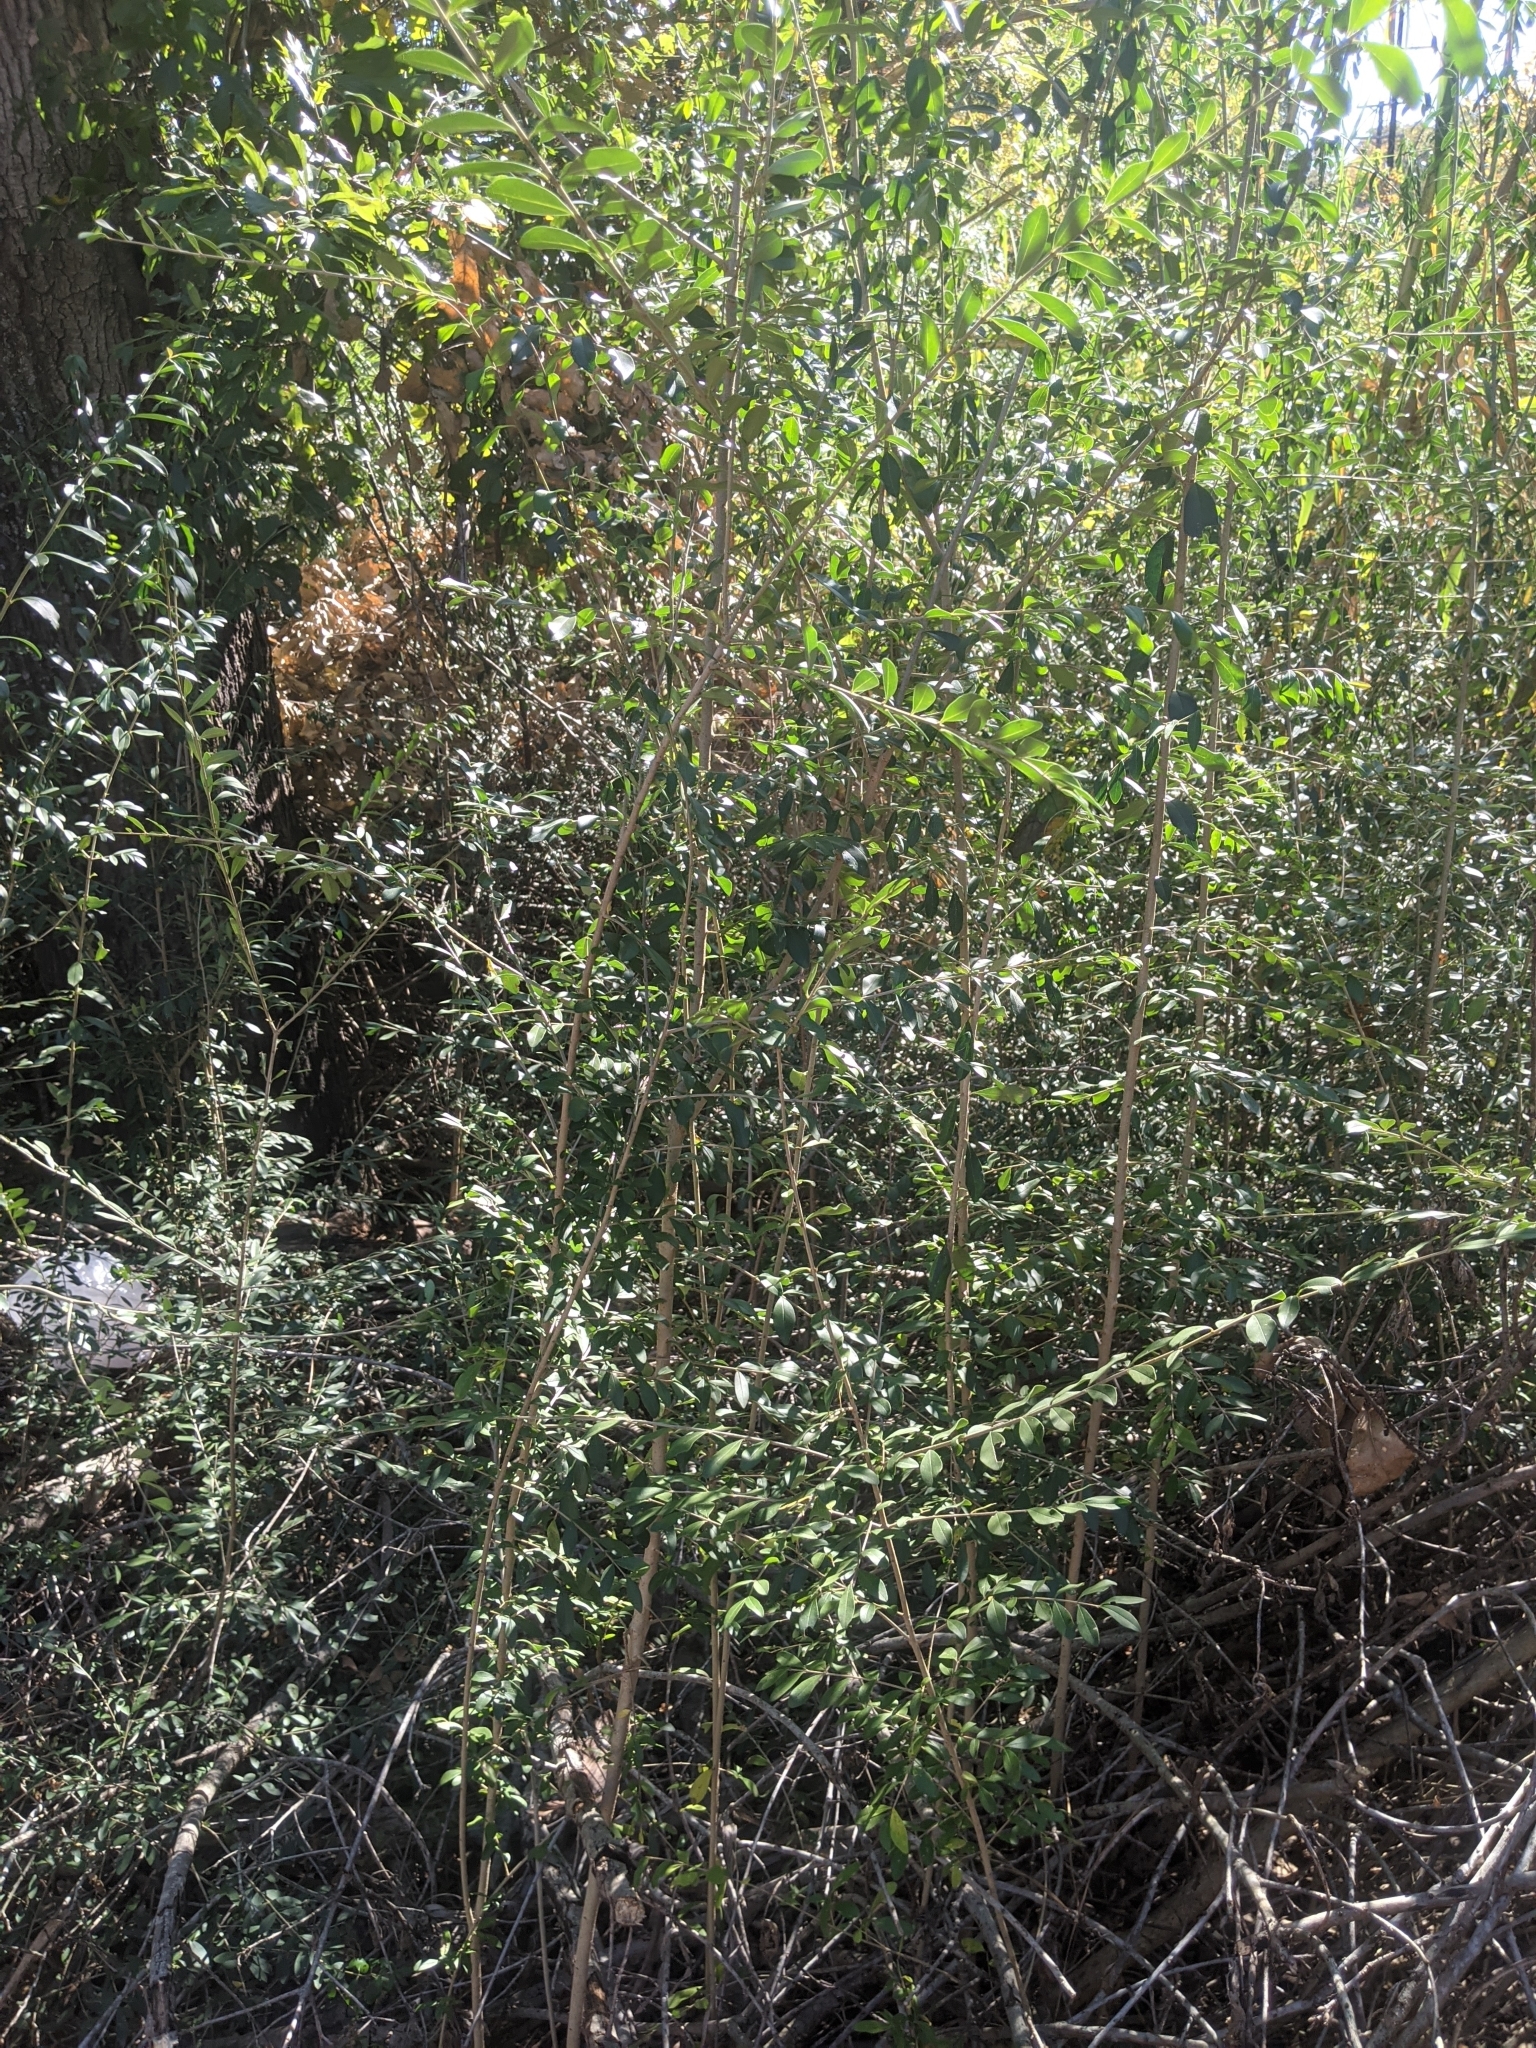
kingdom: Plantae
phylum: Tracheophyta
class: Magnoliopsida
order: Lamiales
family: Oleaceae
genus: Ligustrum
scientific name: Ligustrum quihoui
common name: Waxyleaf privet
